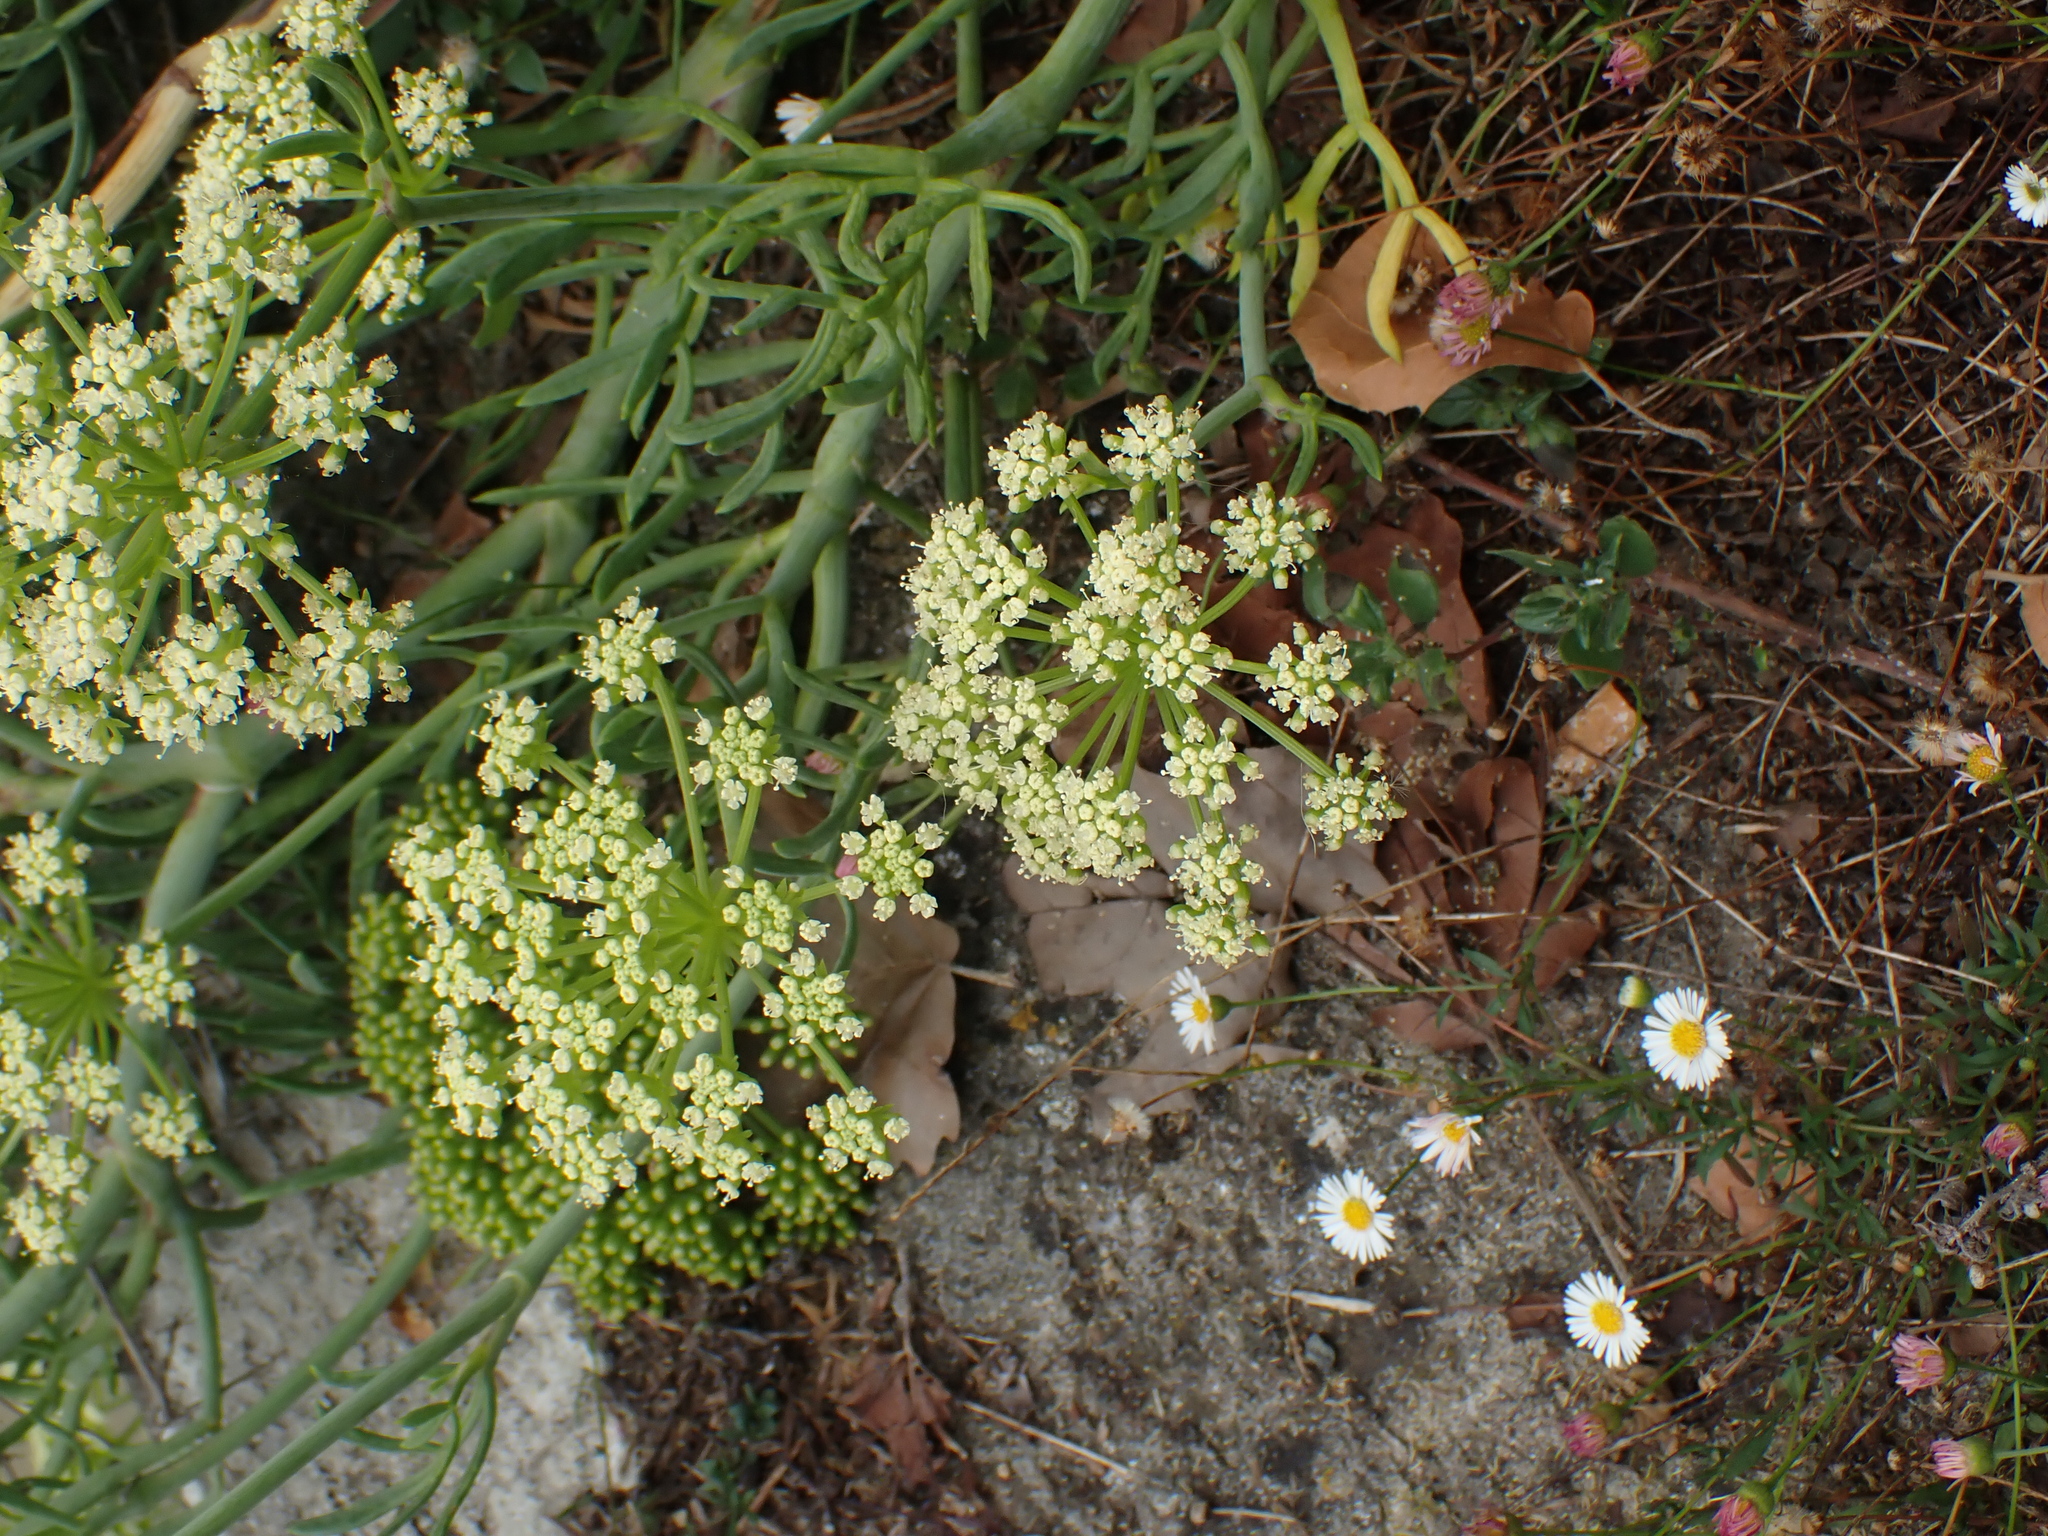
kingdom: Plantae
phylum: Tracheophyta
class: Magnoliopsida
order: Apiales
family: Apiaceae
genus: Crithmum
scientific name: Crithmum maritimum
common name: Rock samphire
